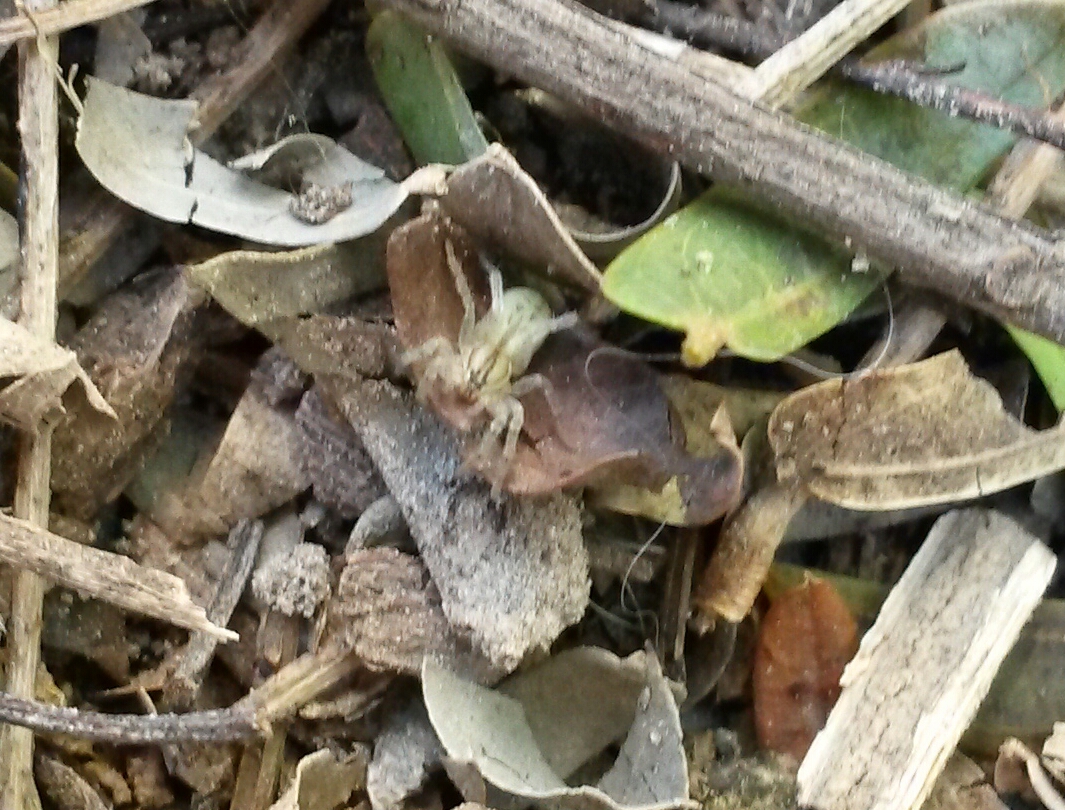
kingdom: Animalia
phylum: Arthropoda
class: Arachnida
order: Araneae
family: Anyphaenidae
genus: Arachosia
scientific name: Arachosia praesignis
